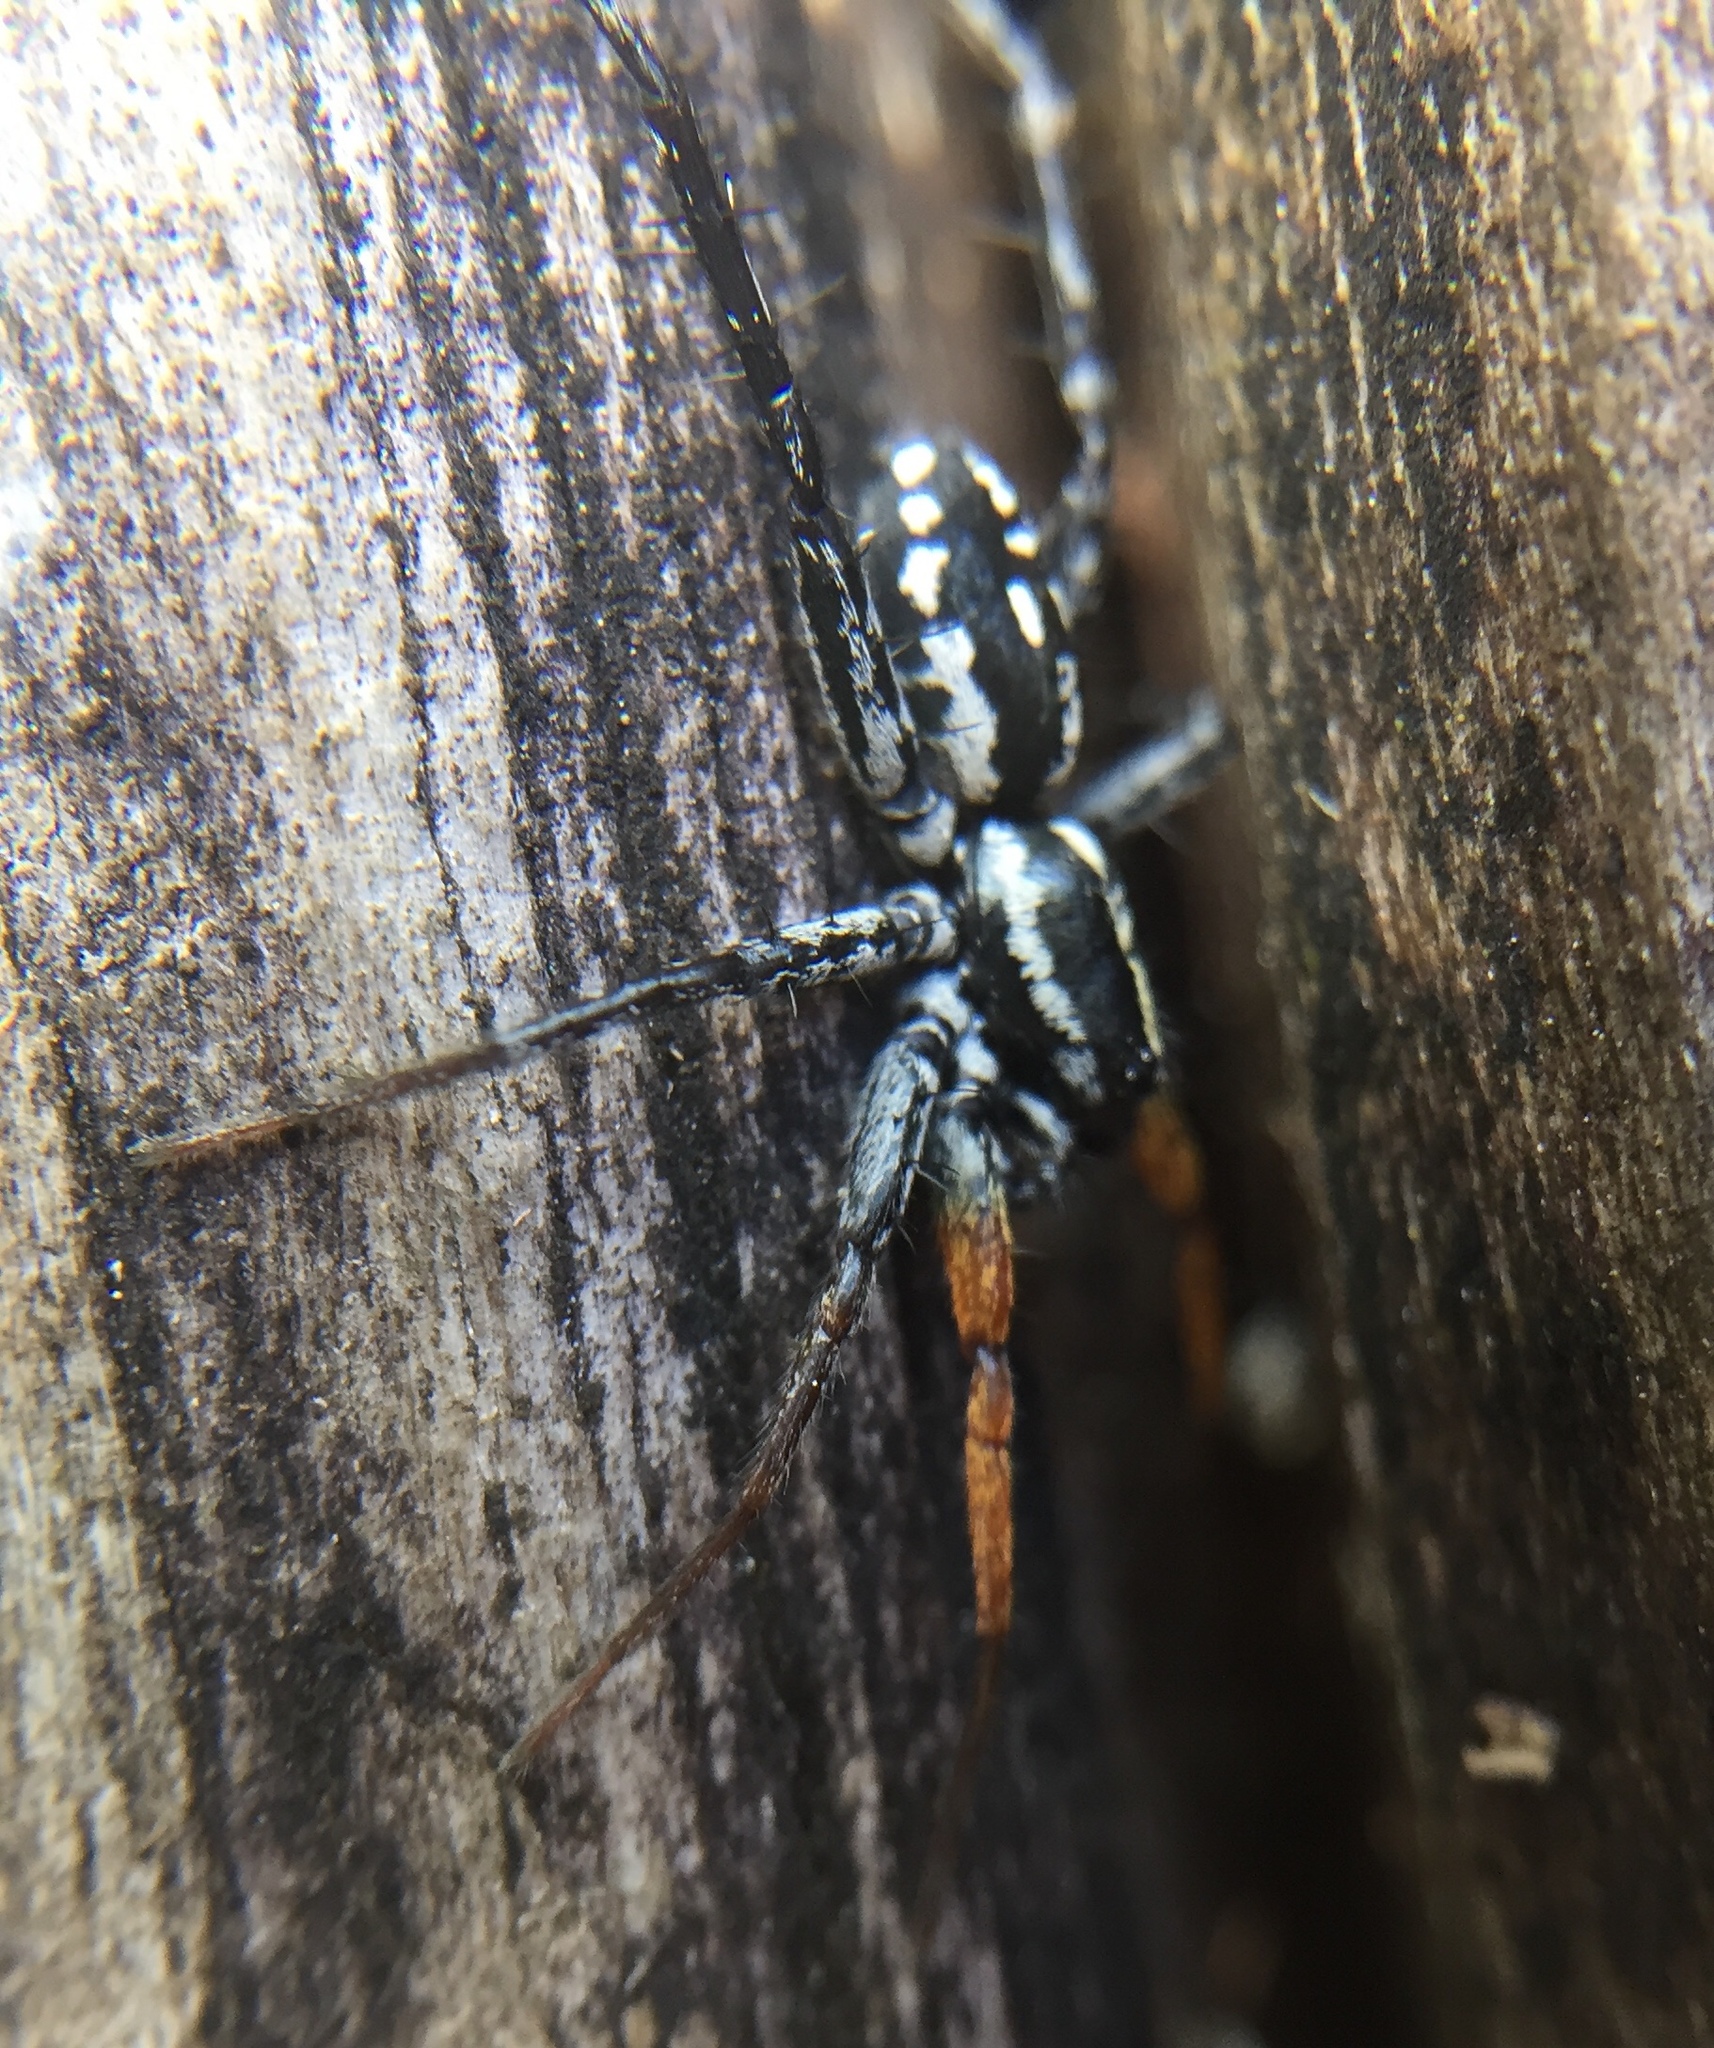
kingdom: Animalia
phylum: Arthropoda
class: Arachnida
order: Araneae
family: Corinnidae
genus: Nyssus
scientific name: Nyssus coloripes
